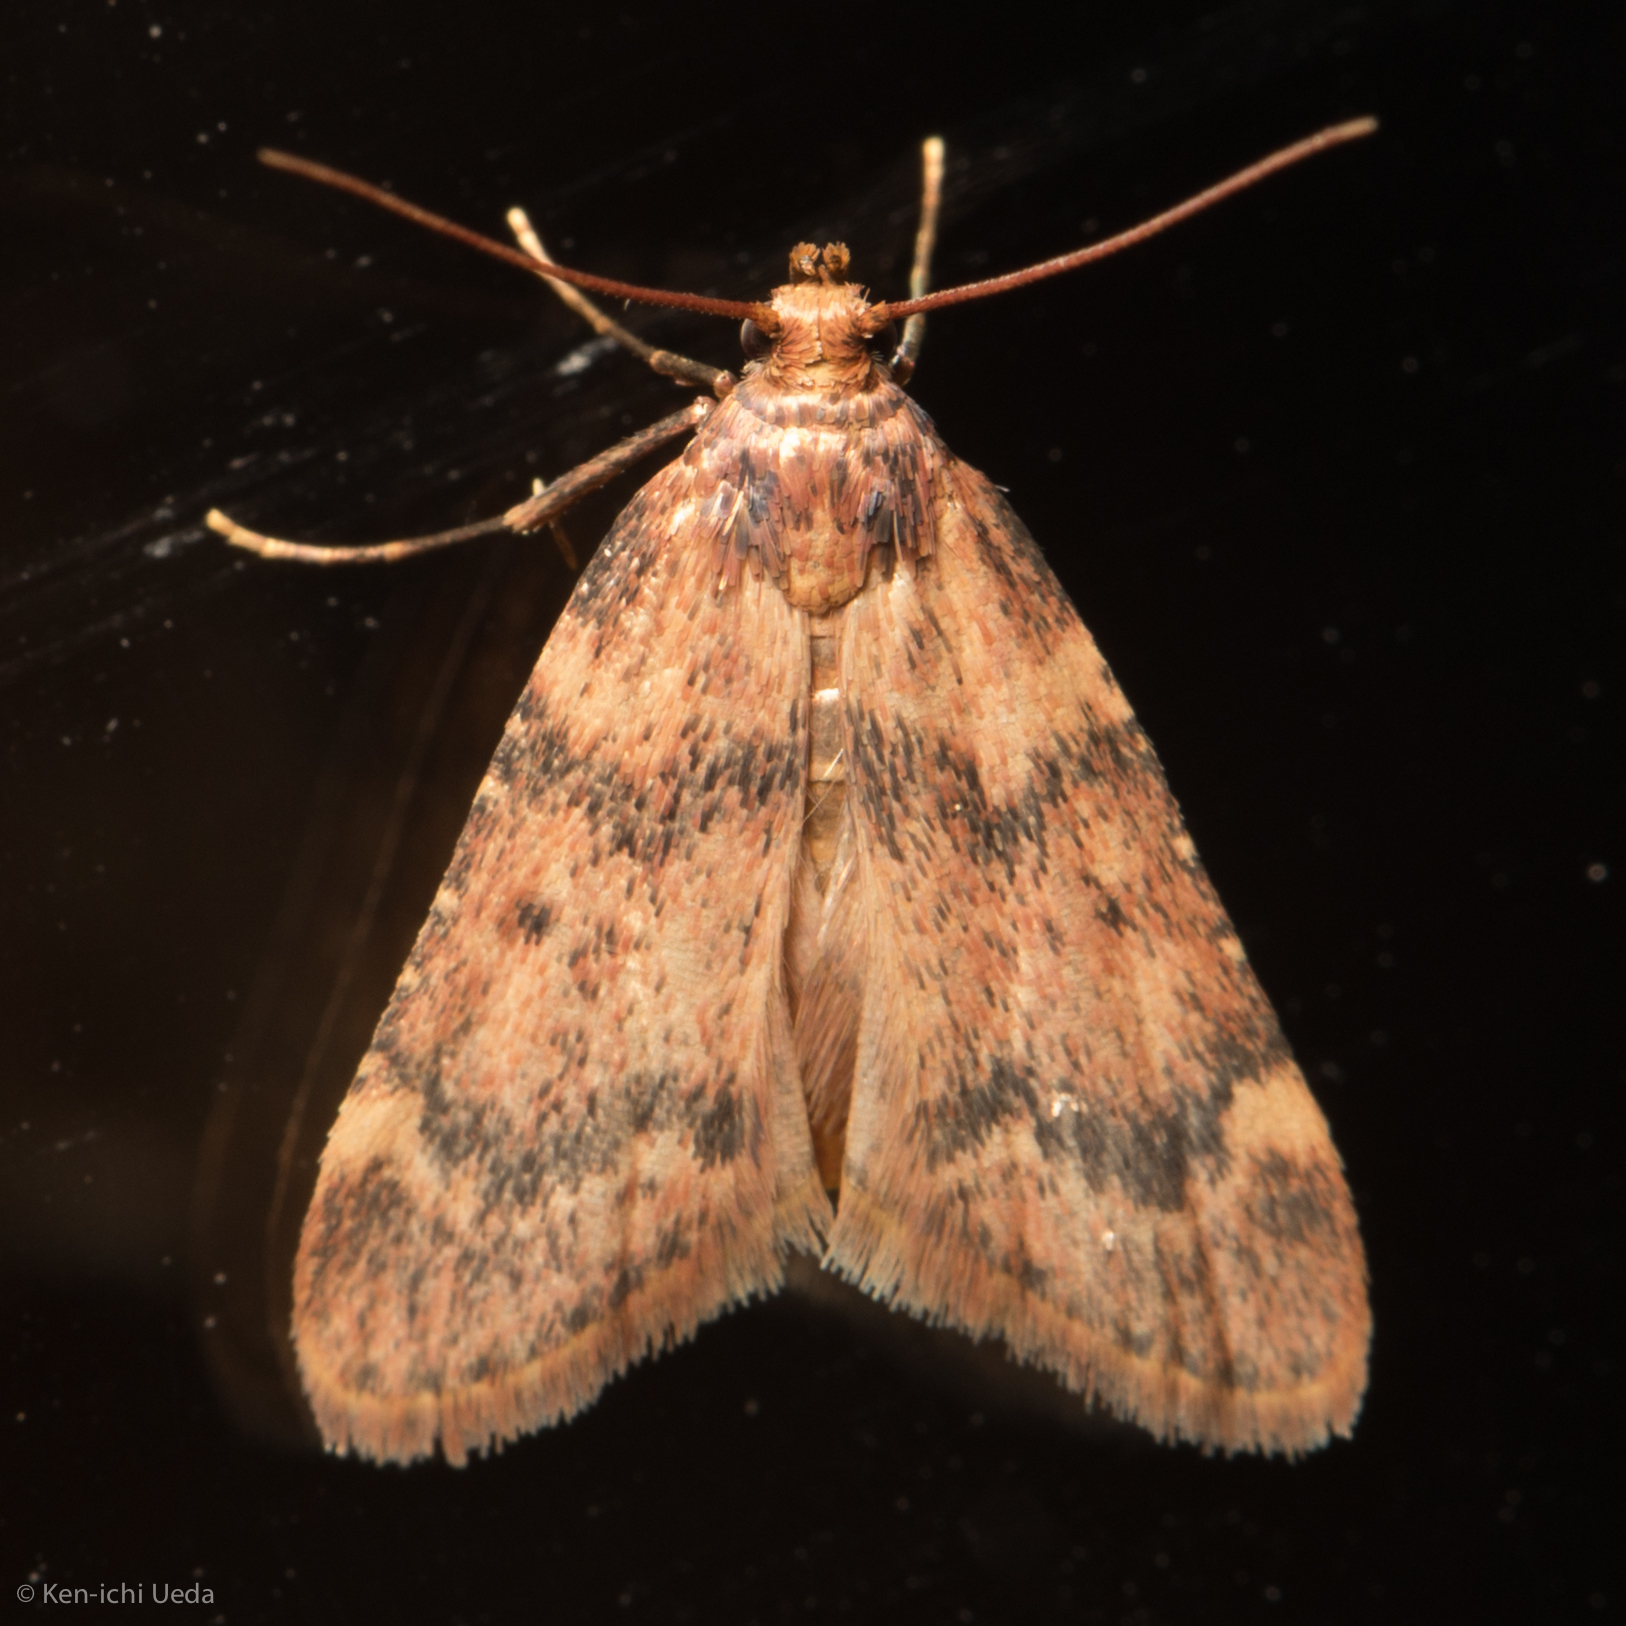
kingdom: Animalia
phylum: Arthropoda
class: Insecta
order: Lepidoptera
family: Pyralidae
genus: Aglossa
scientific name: Aglossa disciferalis
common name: Pink-masked pyralid moth
